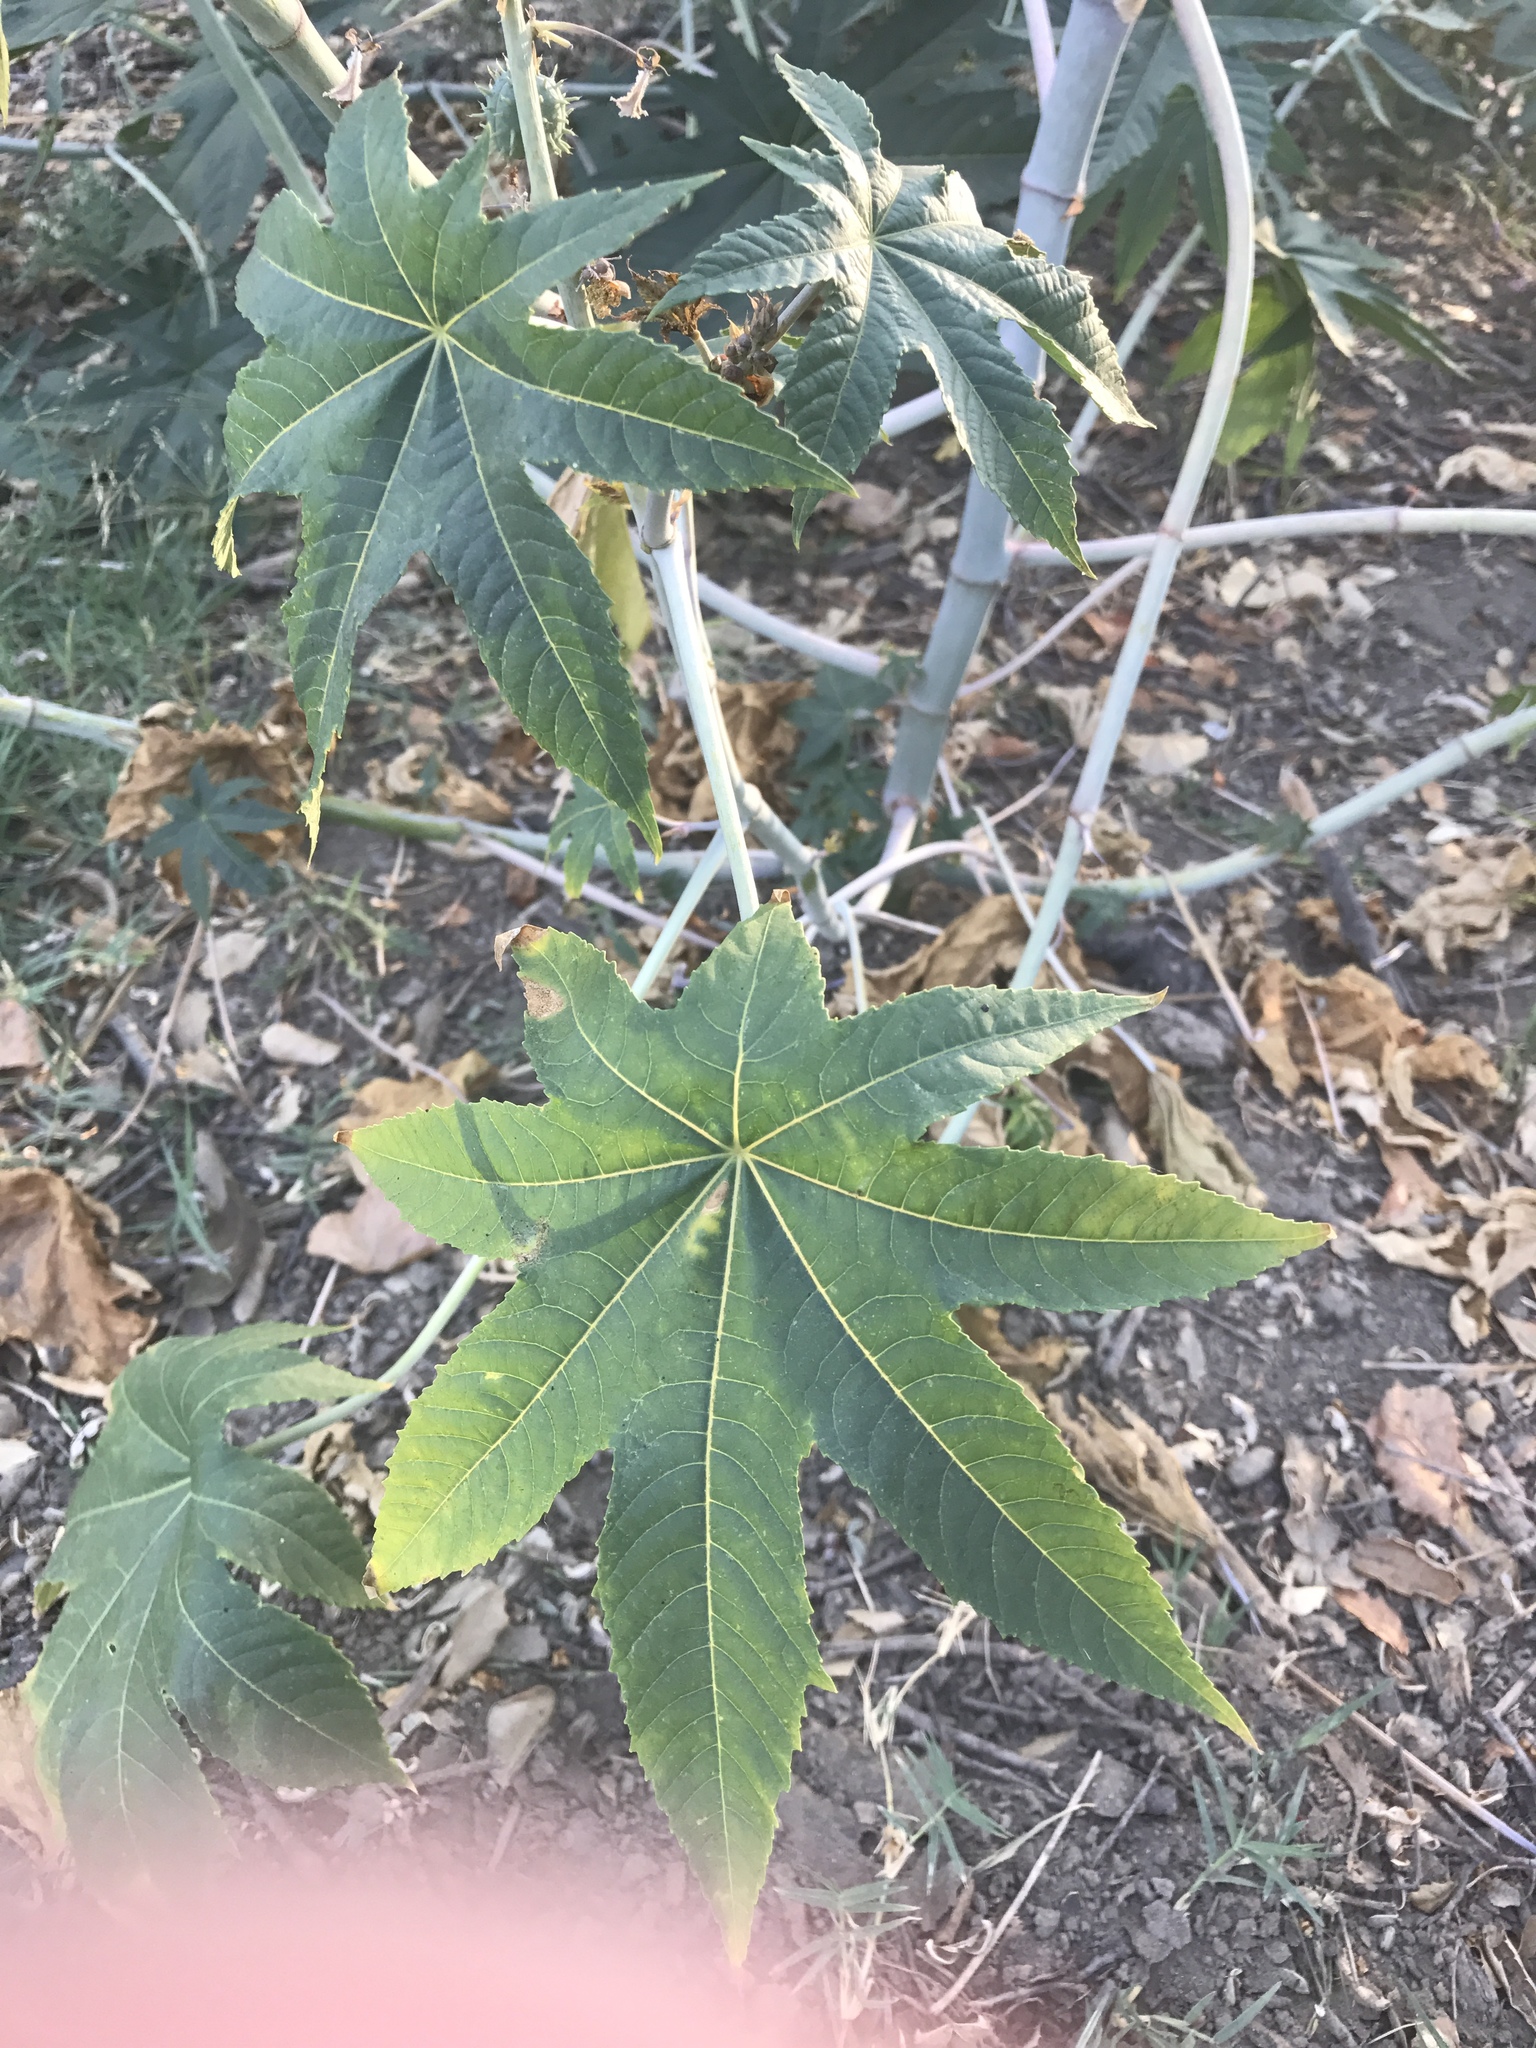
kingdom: Plantae
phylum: Tracheophyta
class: Magnoliopsida
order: Malpighiales
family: Euphorbiaceae
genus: Ricinus
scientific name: Ricinus communis
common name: Castor-oil-plant
